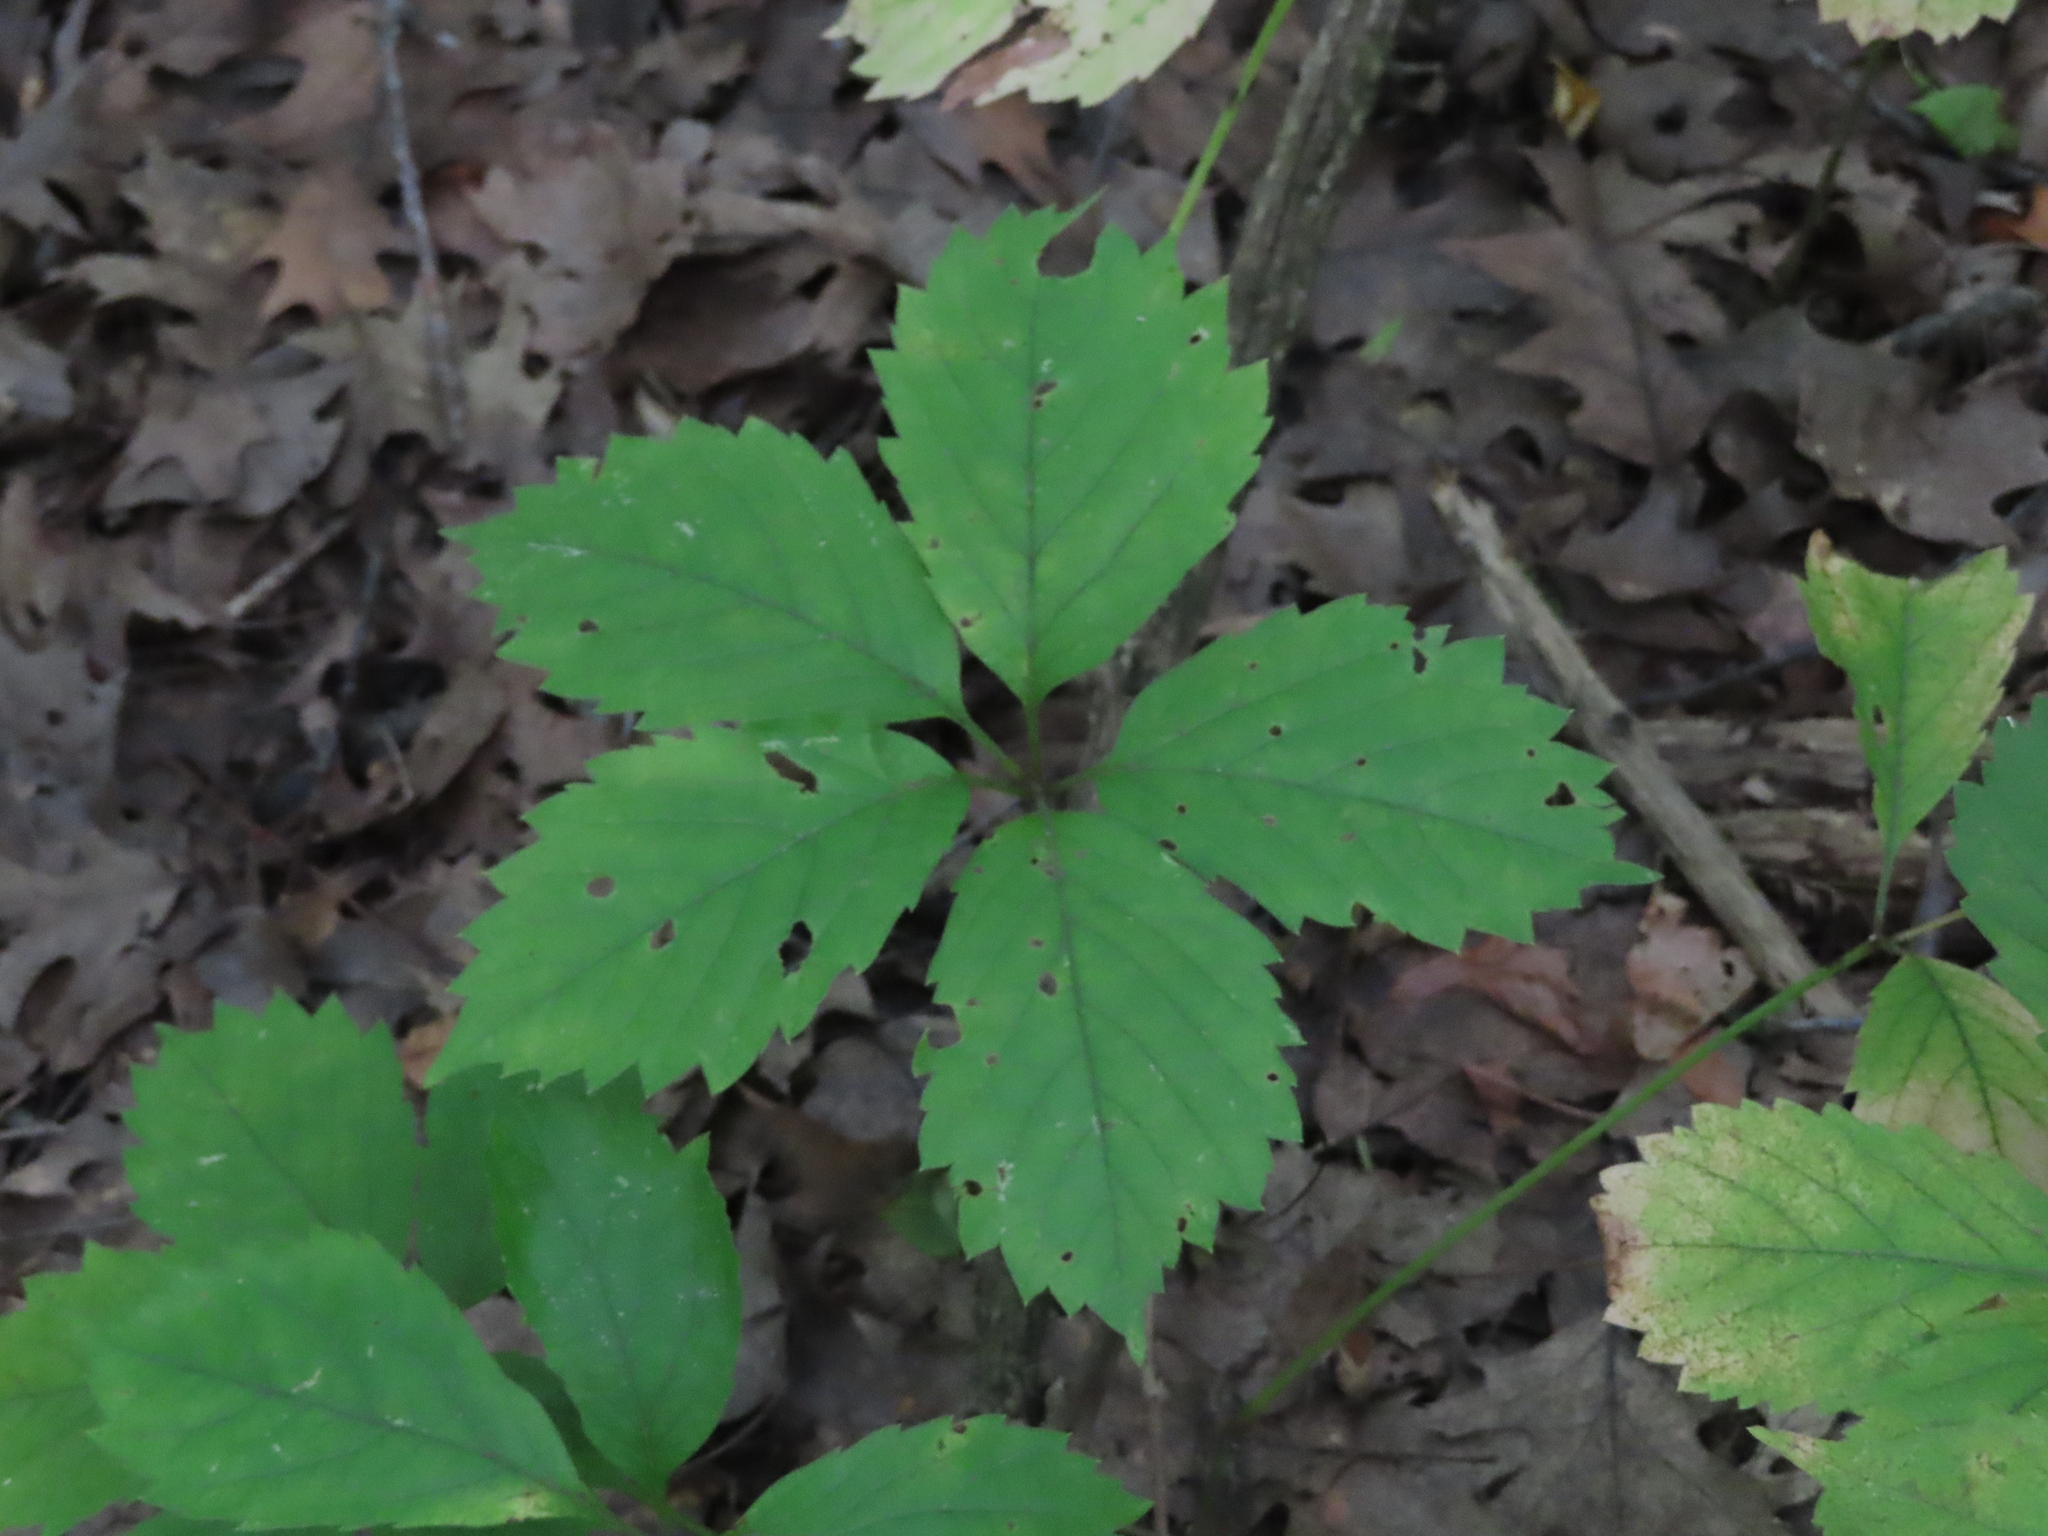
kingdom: Plantae
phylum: Tracheophyta
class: Magnoliopsida
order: Vitales
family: Vitaceae
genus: Parthenocissus
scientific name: Parthenocissus inserta
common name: False virginia-creeper
